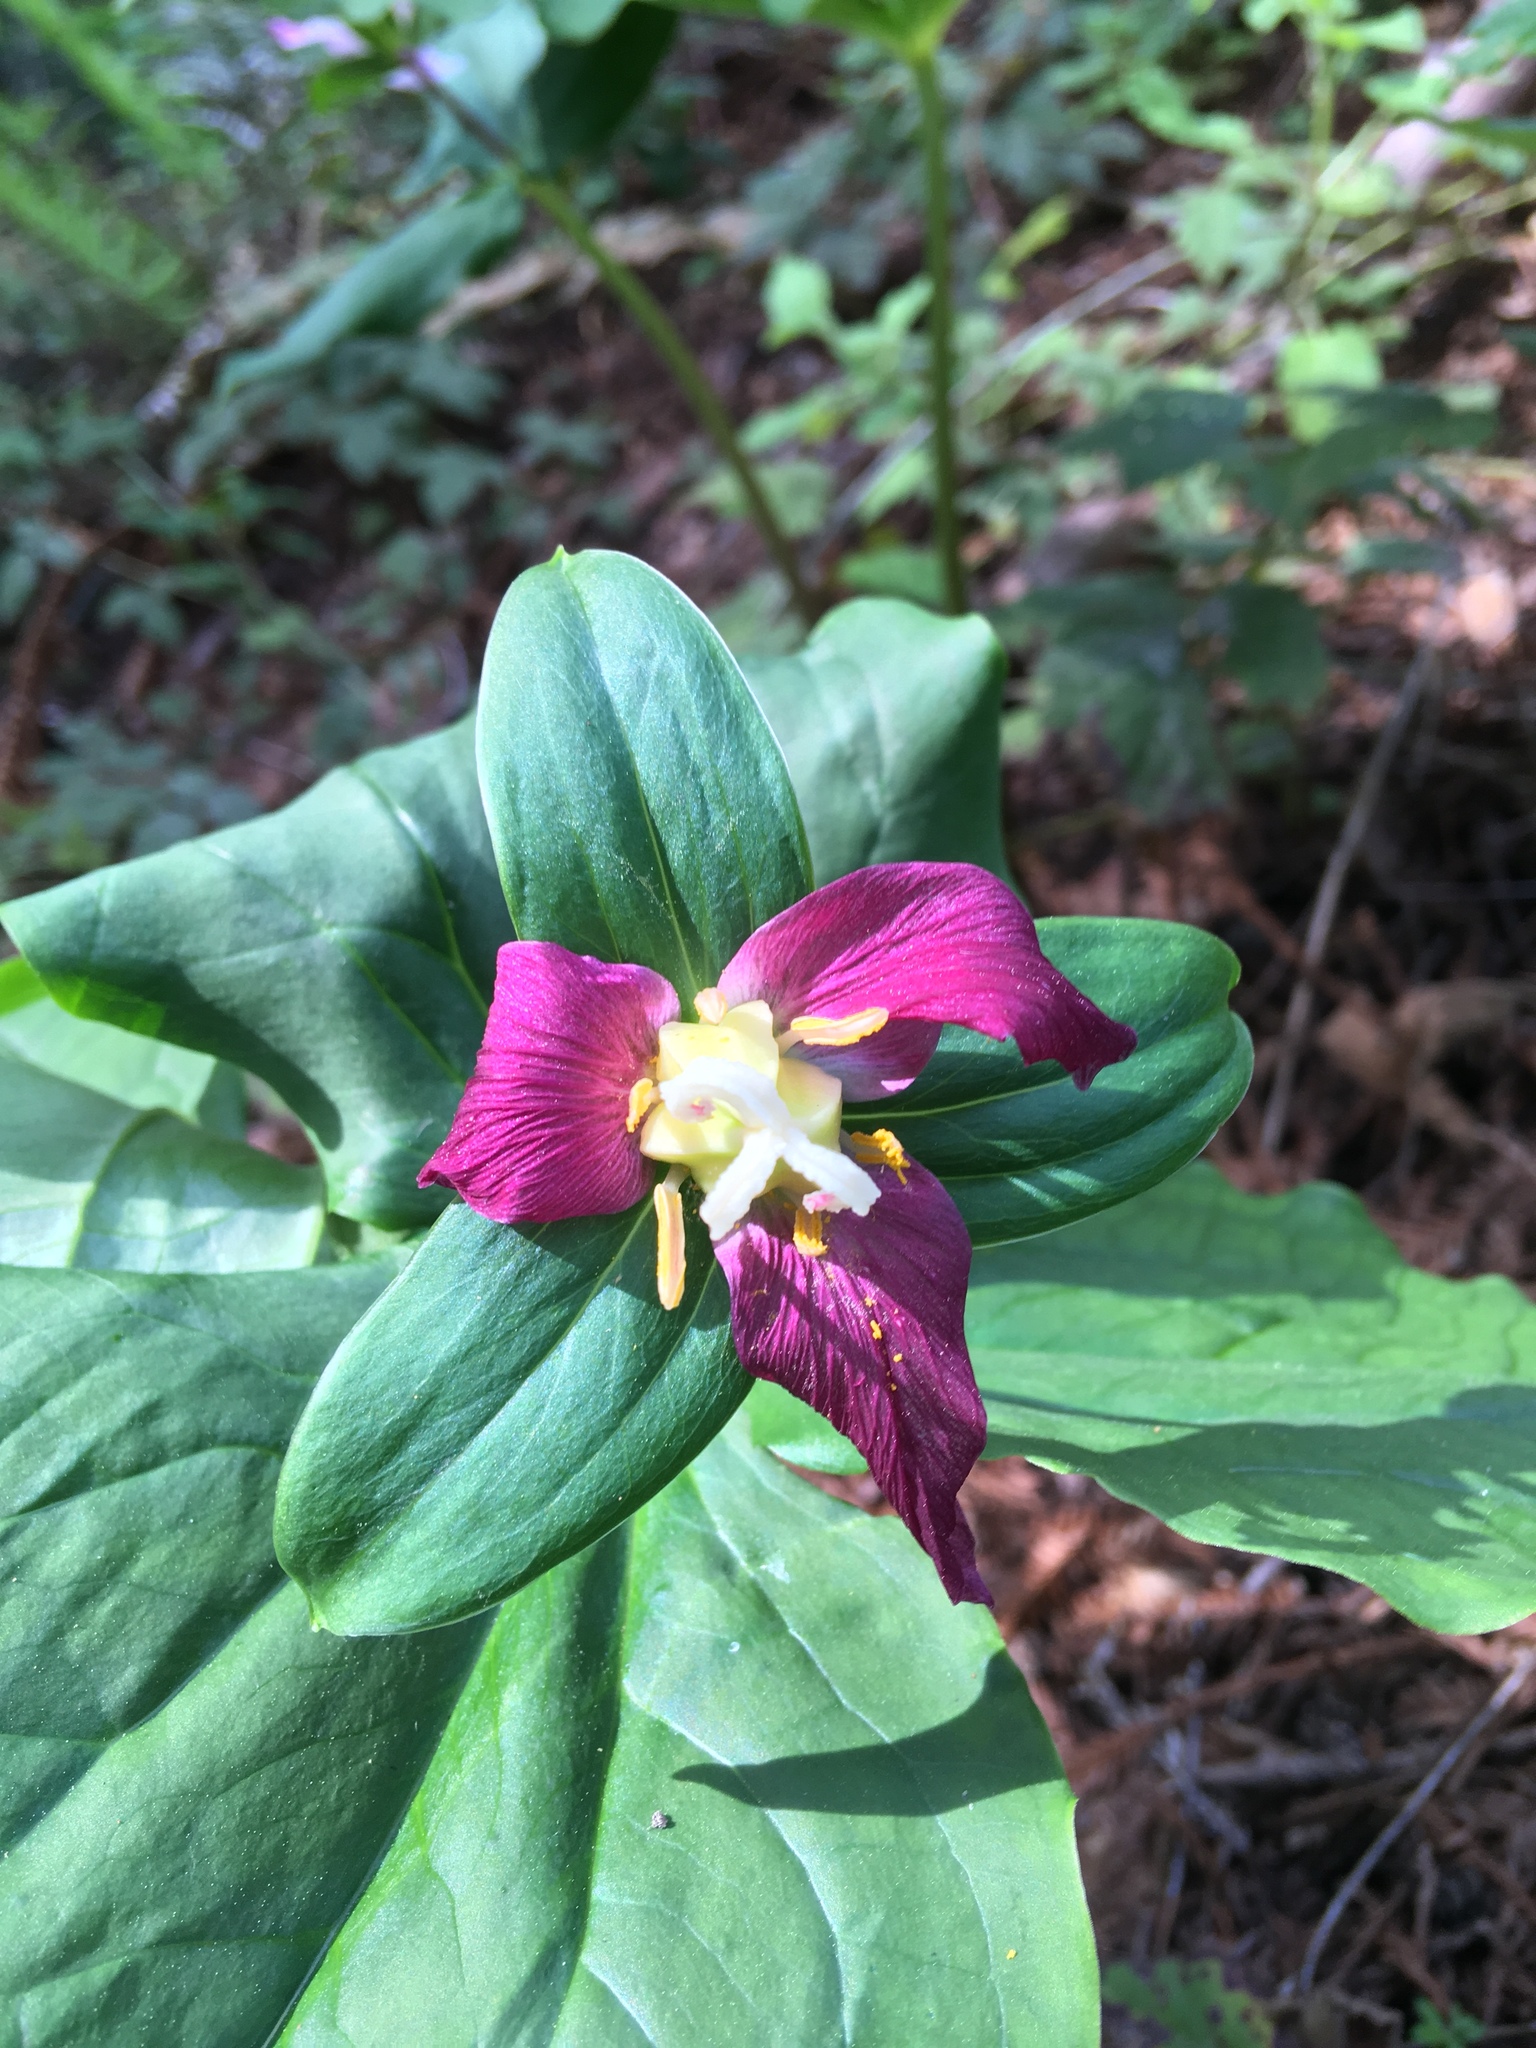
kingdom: Plantae
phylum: Tracheophyta
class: Liliopsida
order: Liliales
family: Melanthiaceae
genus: Trillium
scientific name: Trillium ovatum
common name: Pacific trillium
